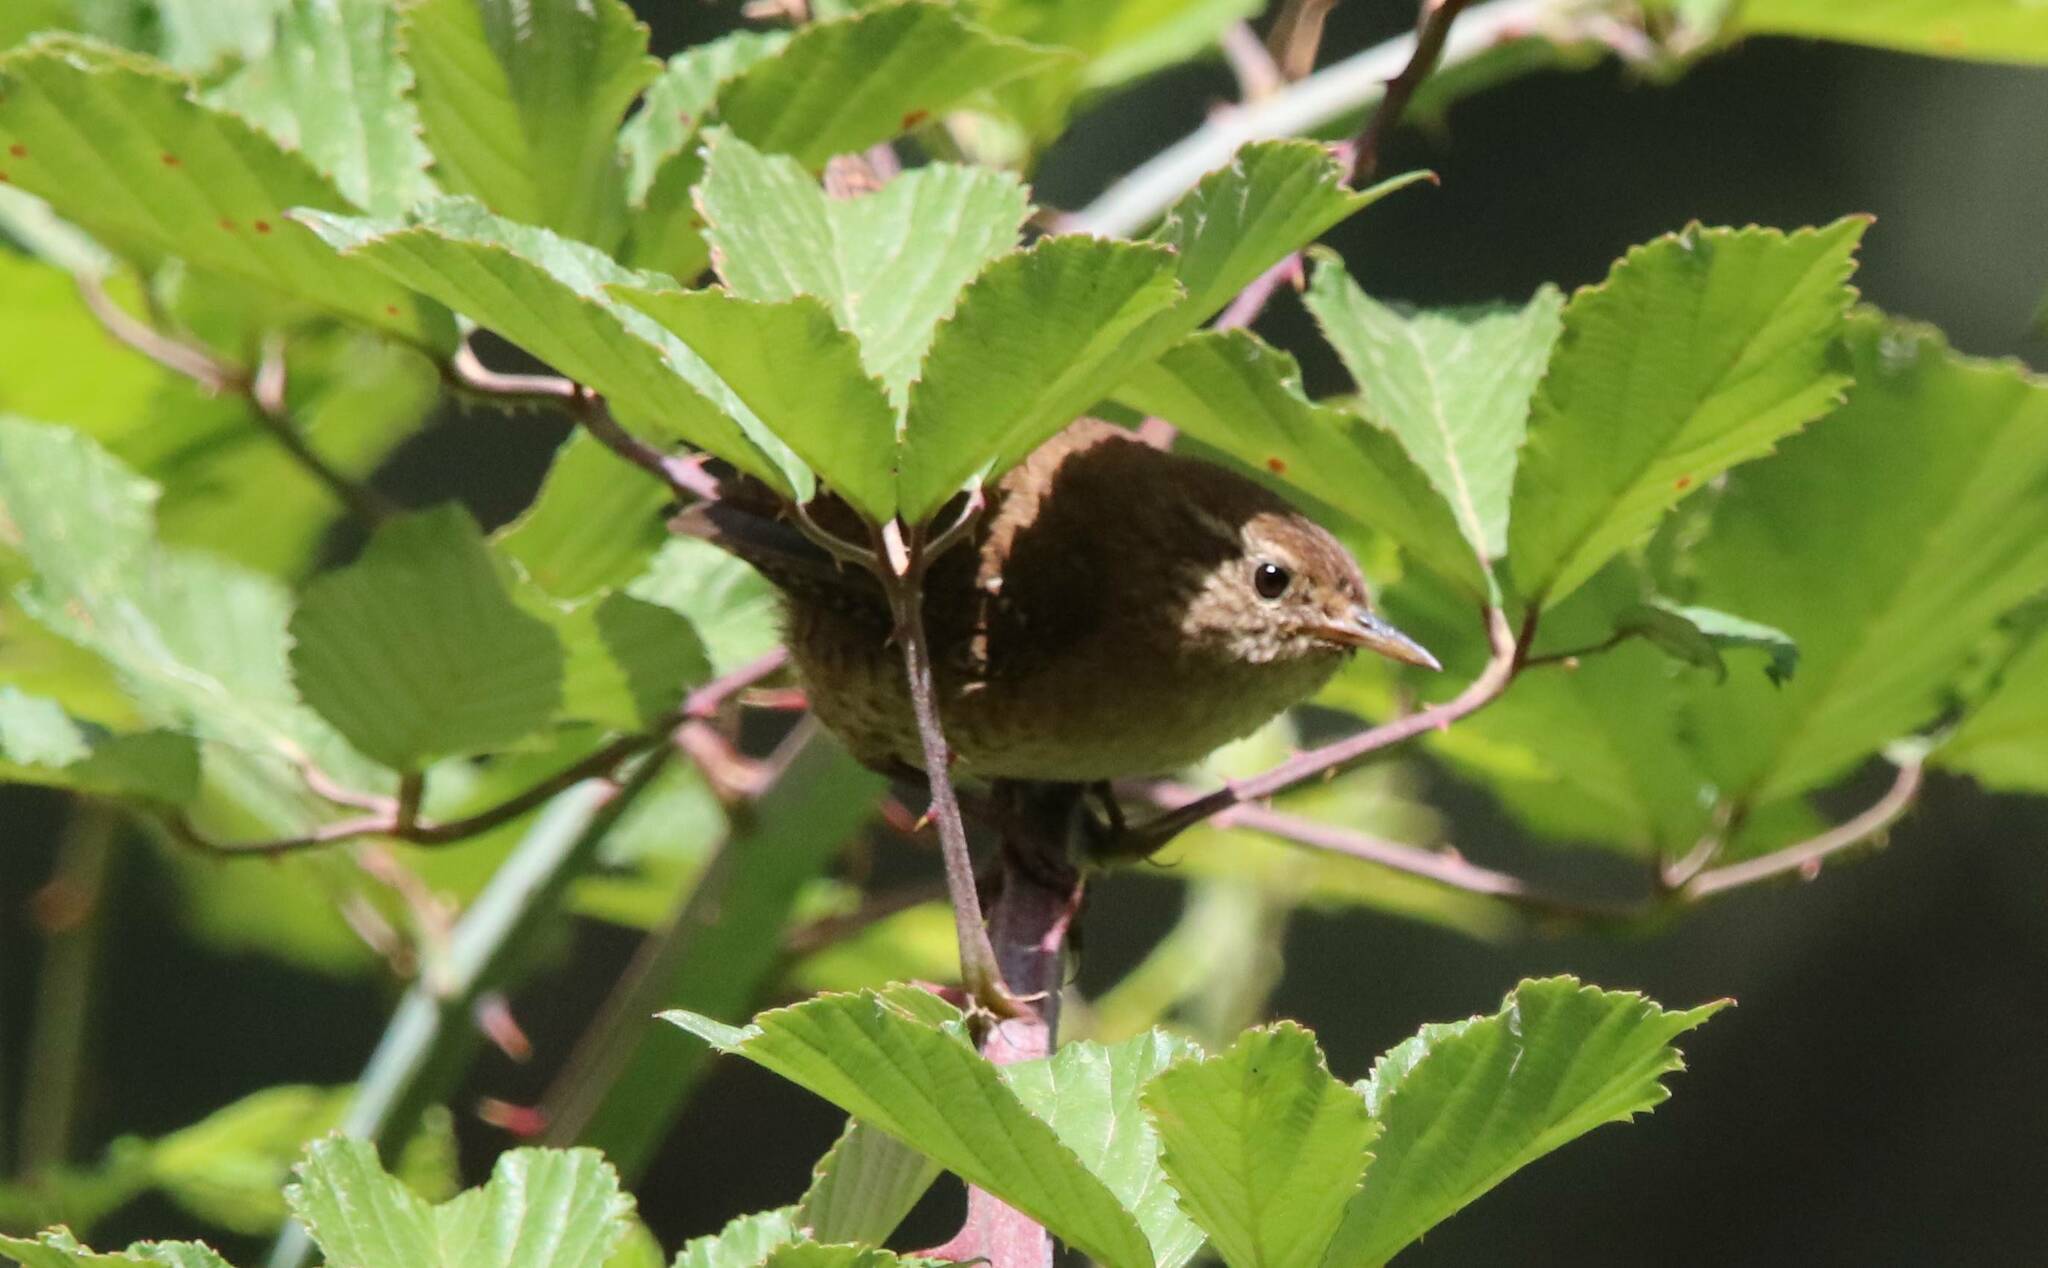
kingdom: Animalia
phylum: Chordata
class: Aves
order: Passeriformes
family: Troglodytidae
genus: Troglodytes
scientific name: Troglodytes troglodytes
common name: Eurasian wren
